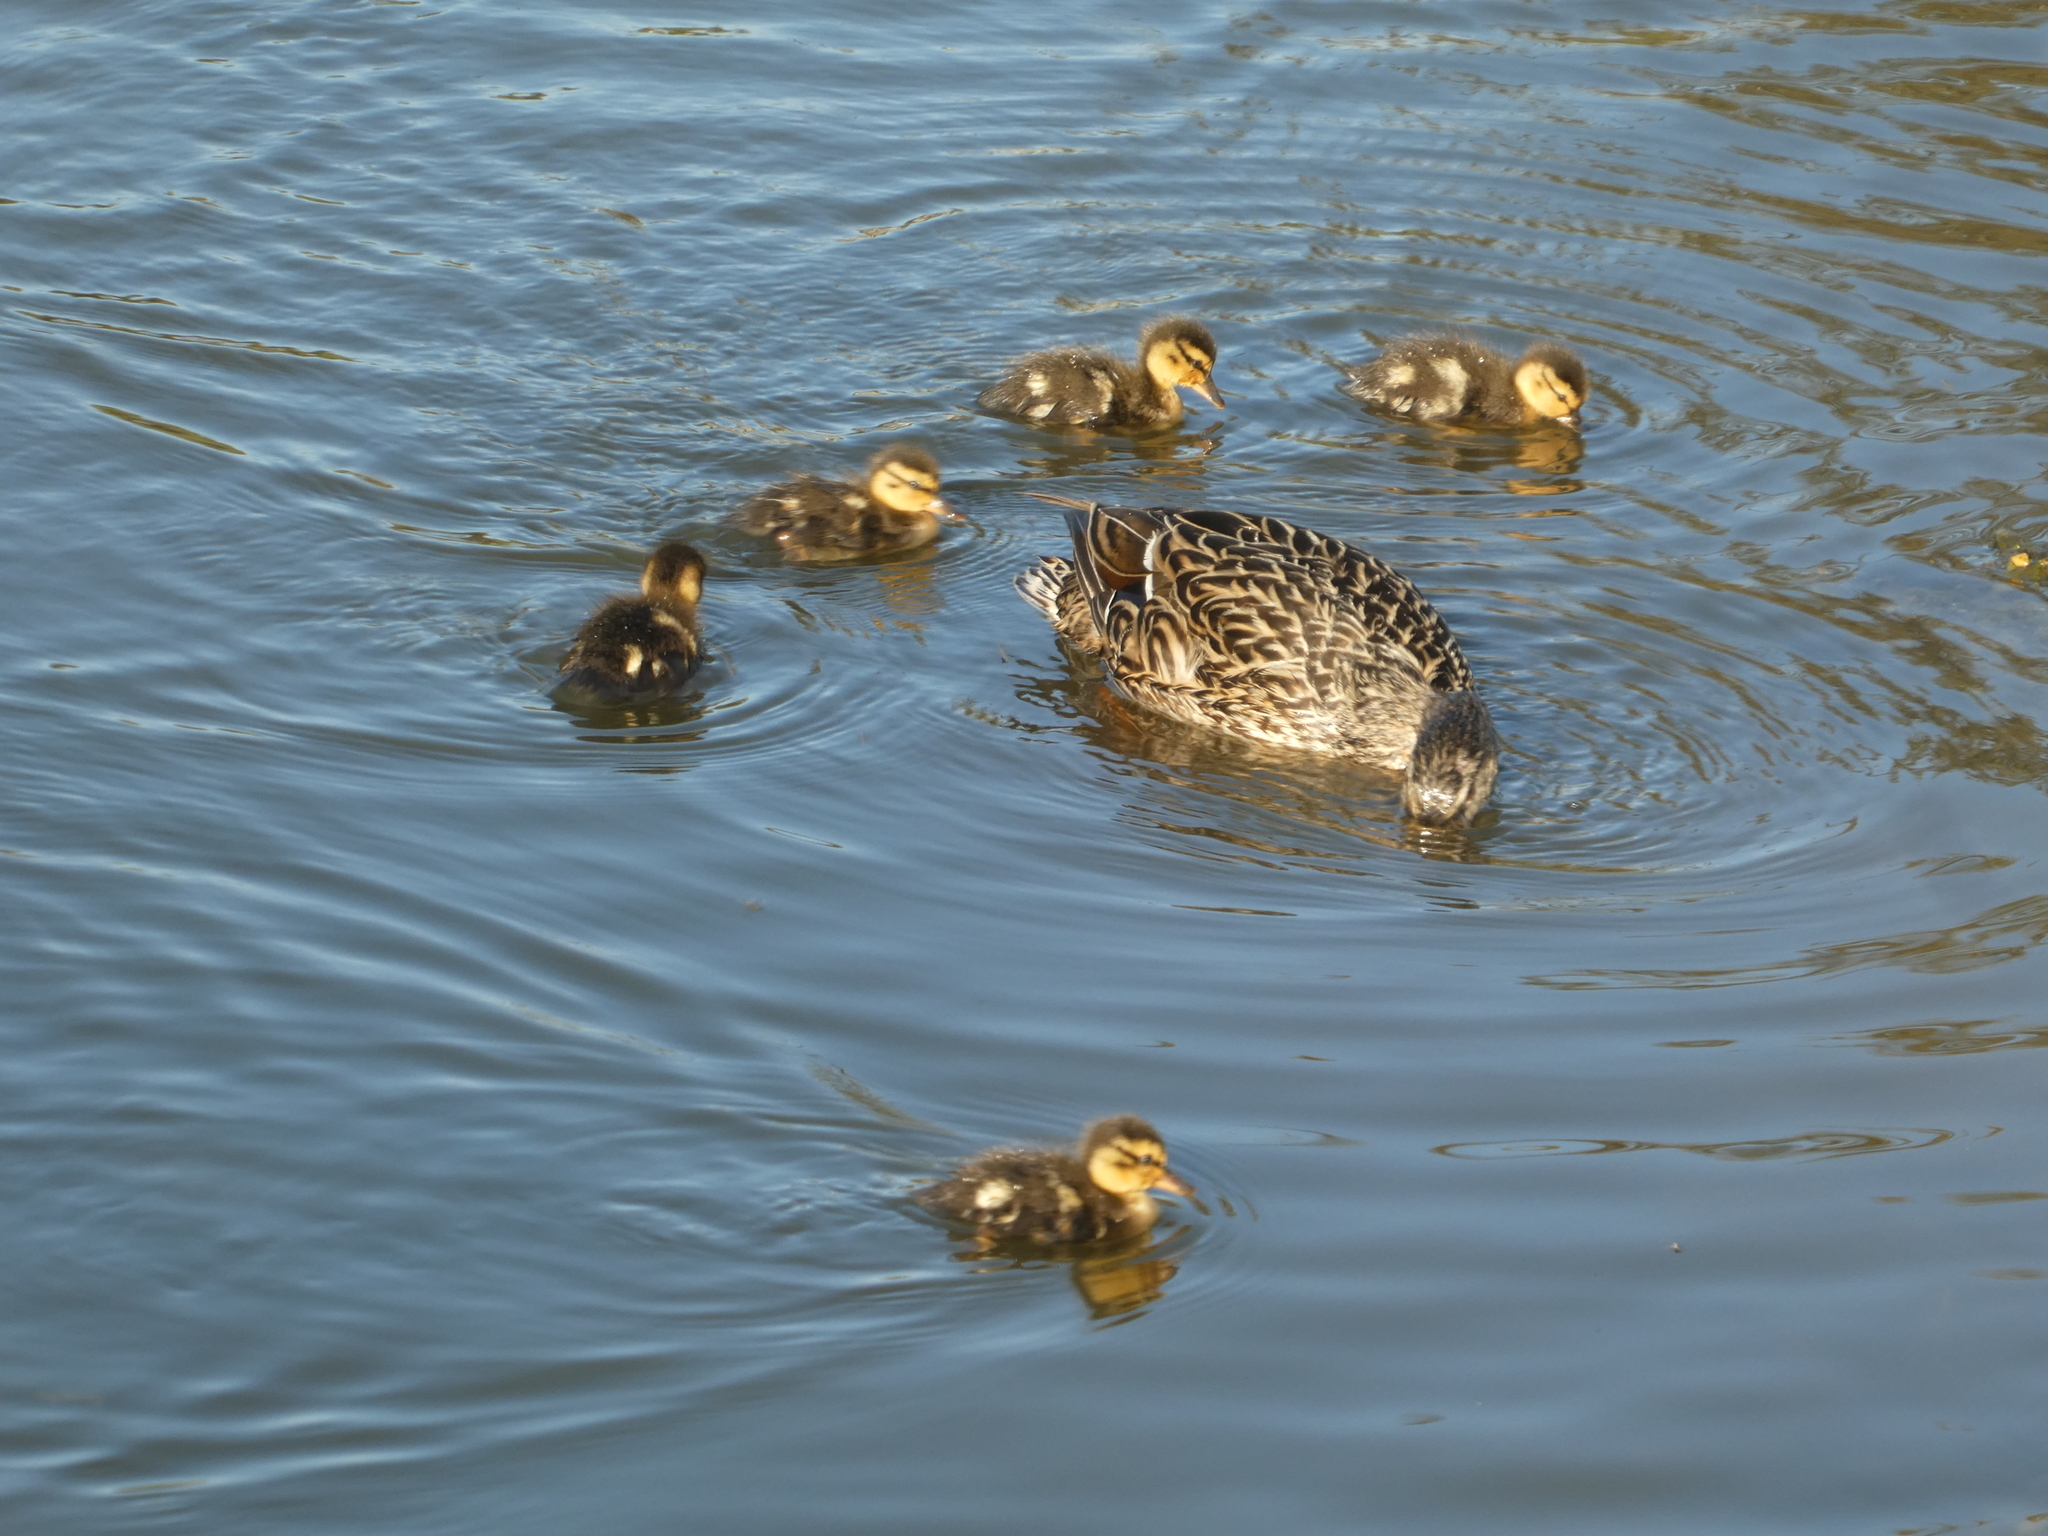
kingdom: Animalia
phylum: Chordata
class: Aves
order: Anseriformes
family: Anatidae
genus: Anas
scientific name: Anas platyrhynchos
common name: Mallard
